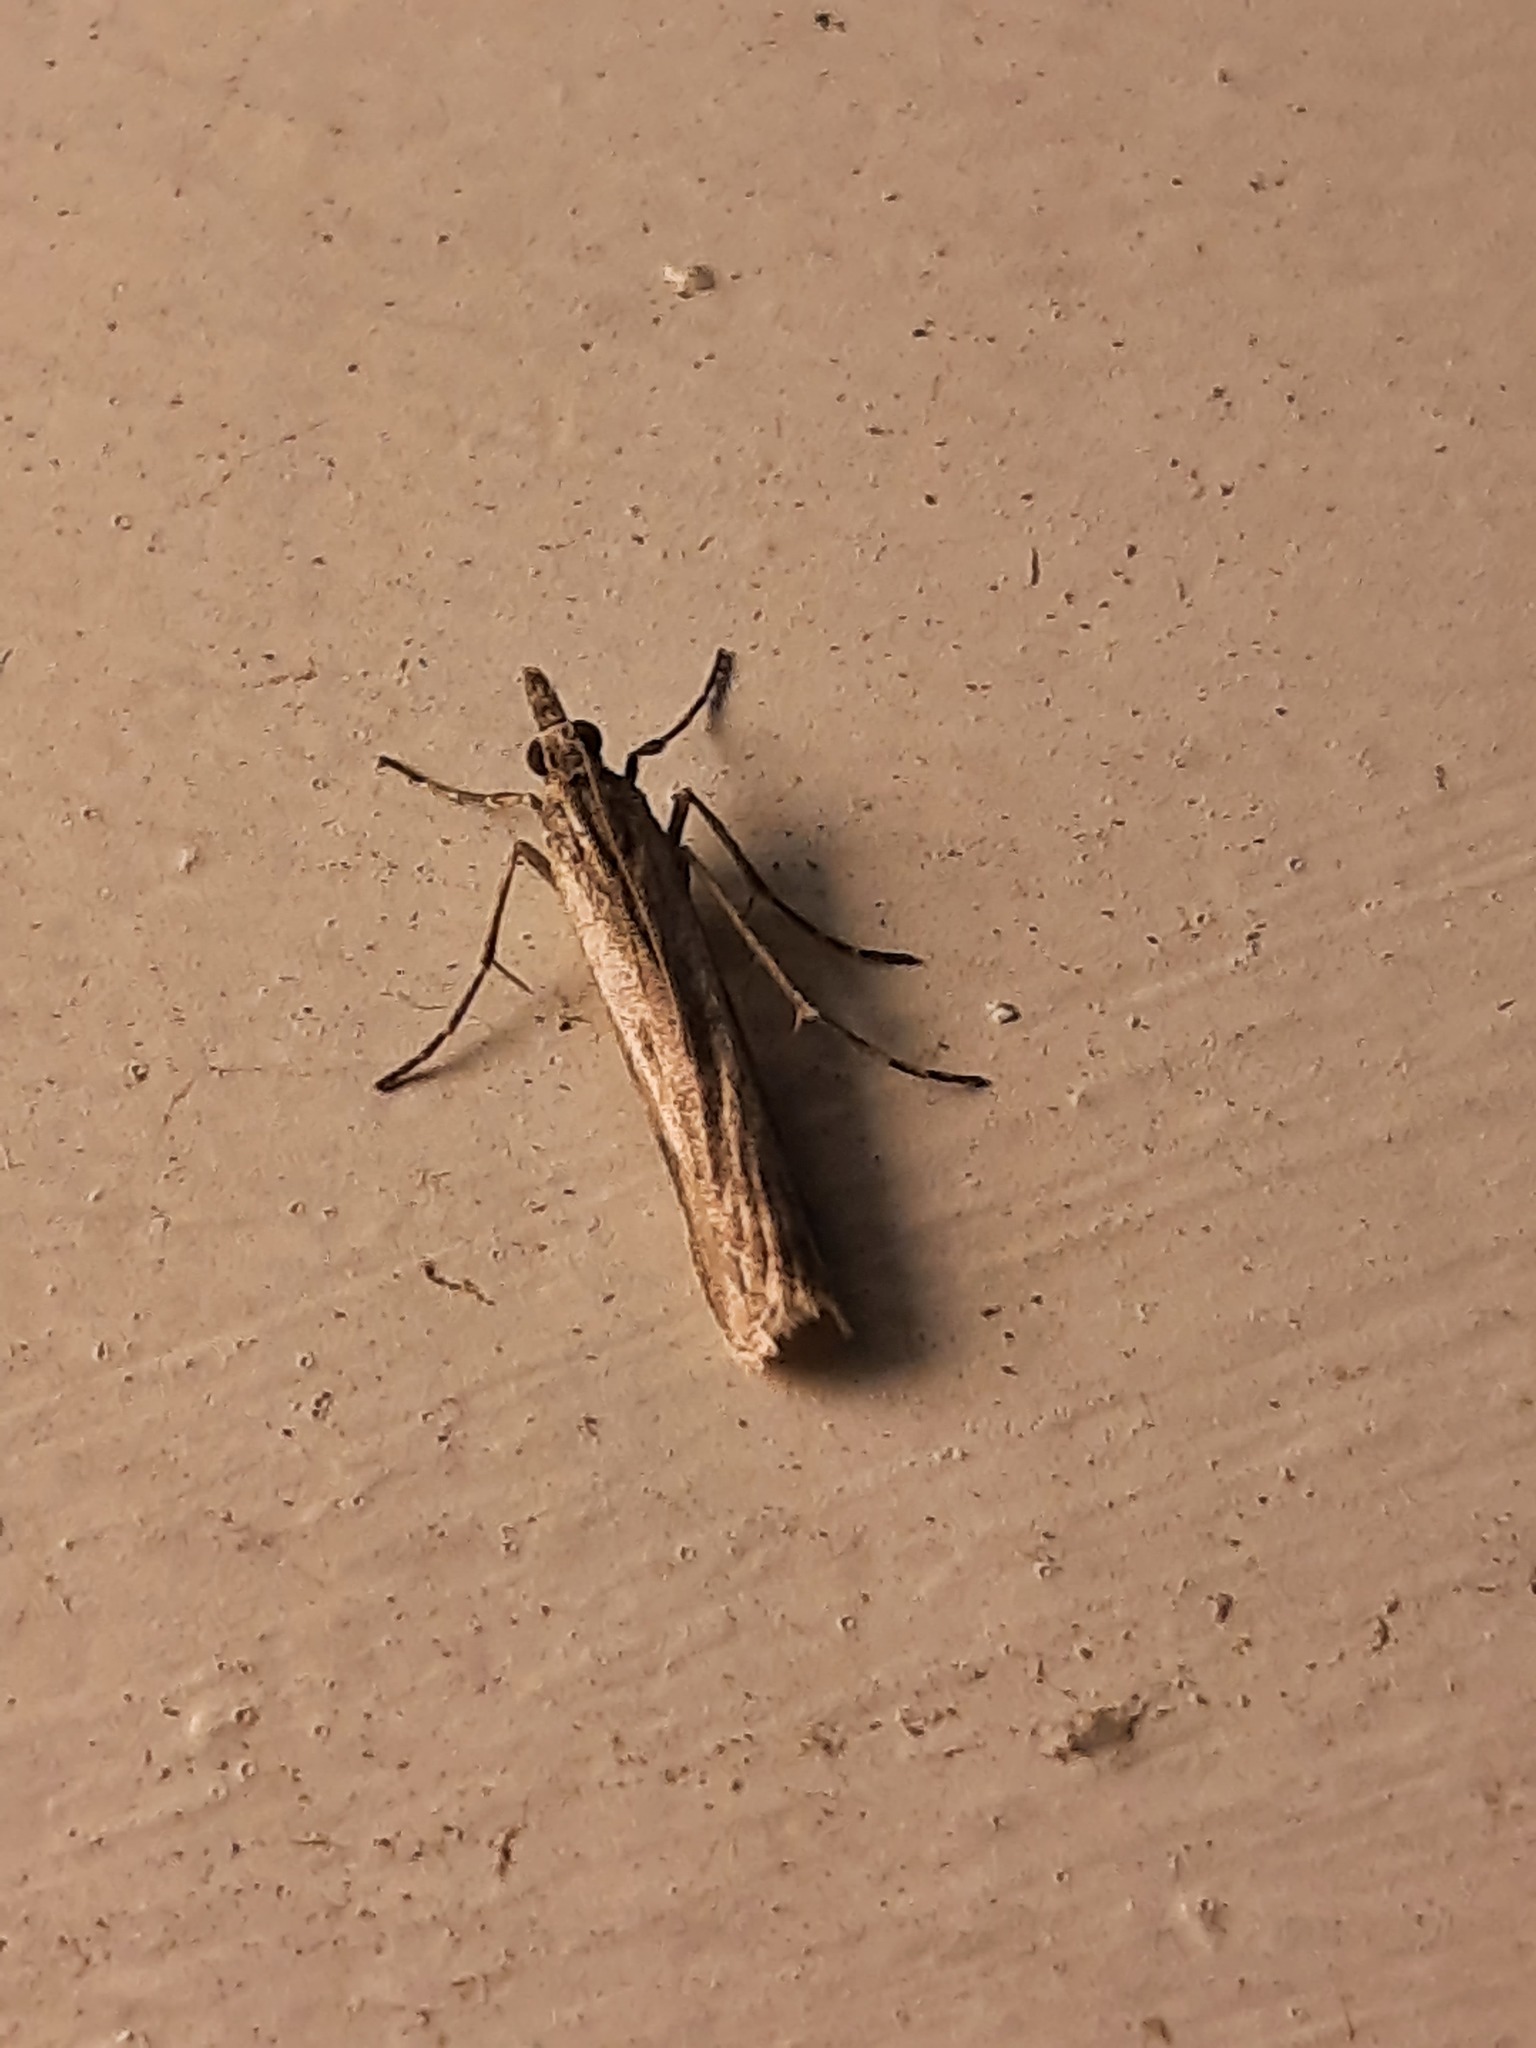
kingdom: Animalia
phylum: Arthropoda
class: Insecta
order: Lepidoptera
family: Crambidae
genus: Eudonia
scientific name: Eudonia leptalea
